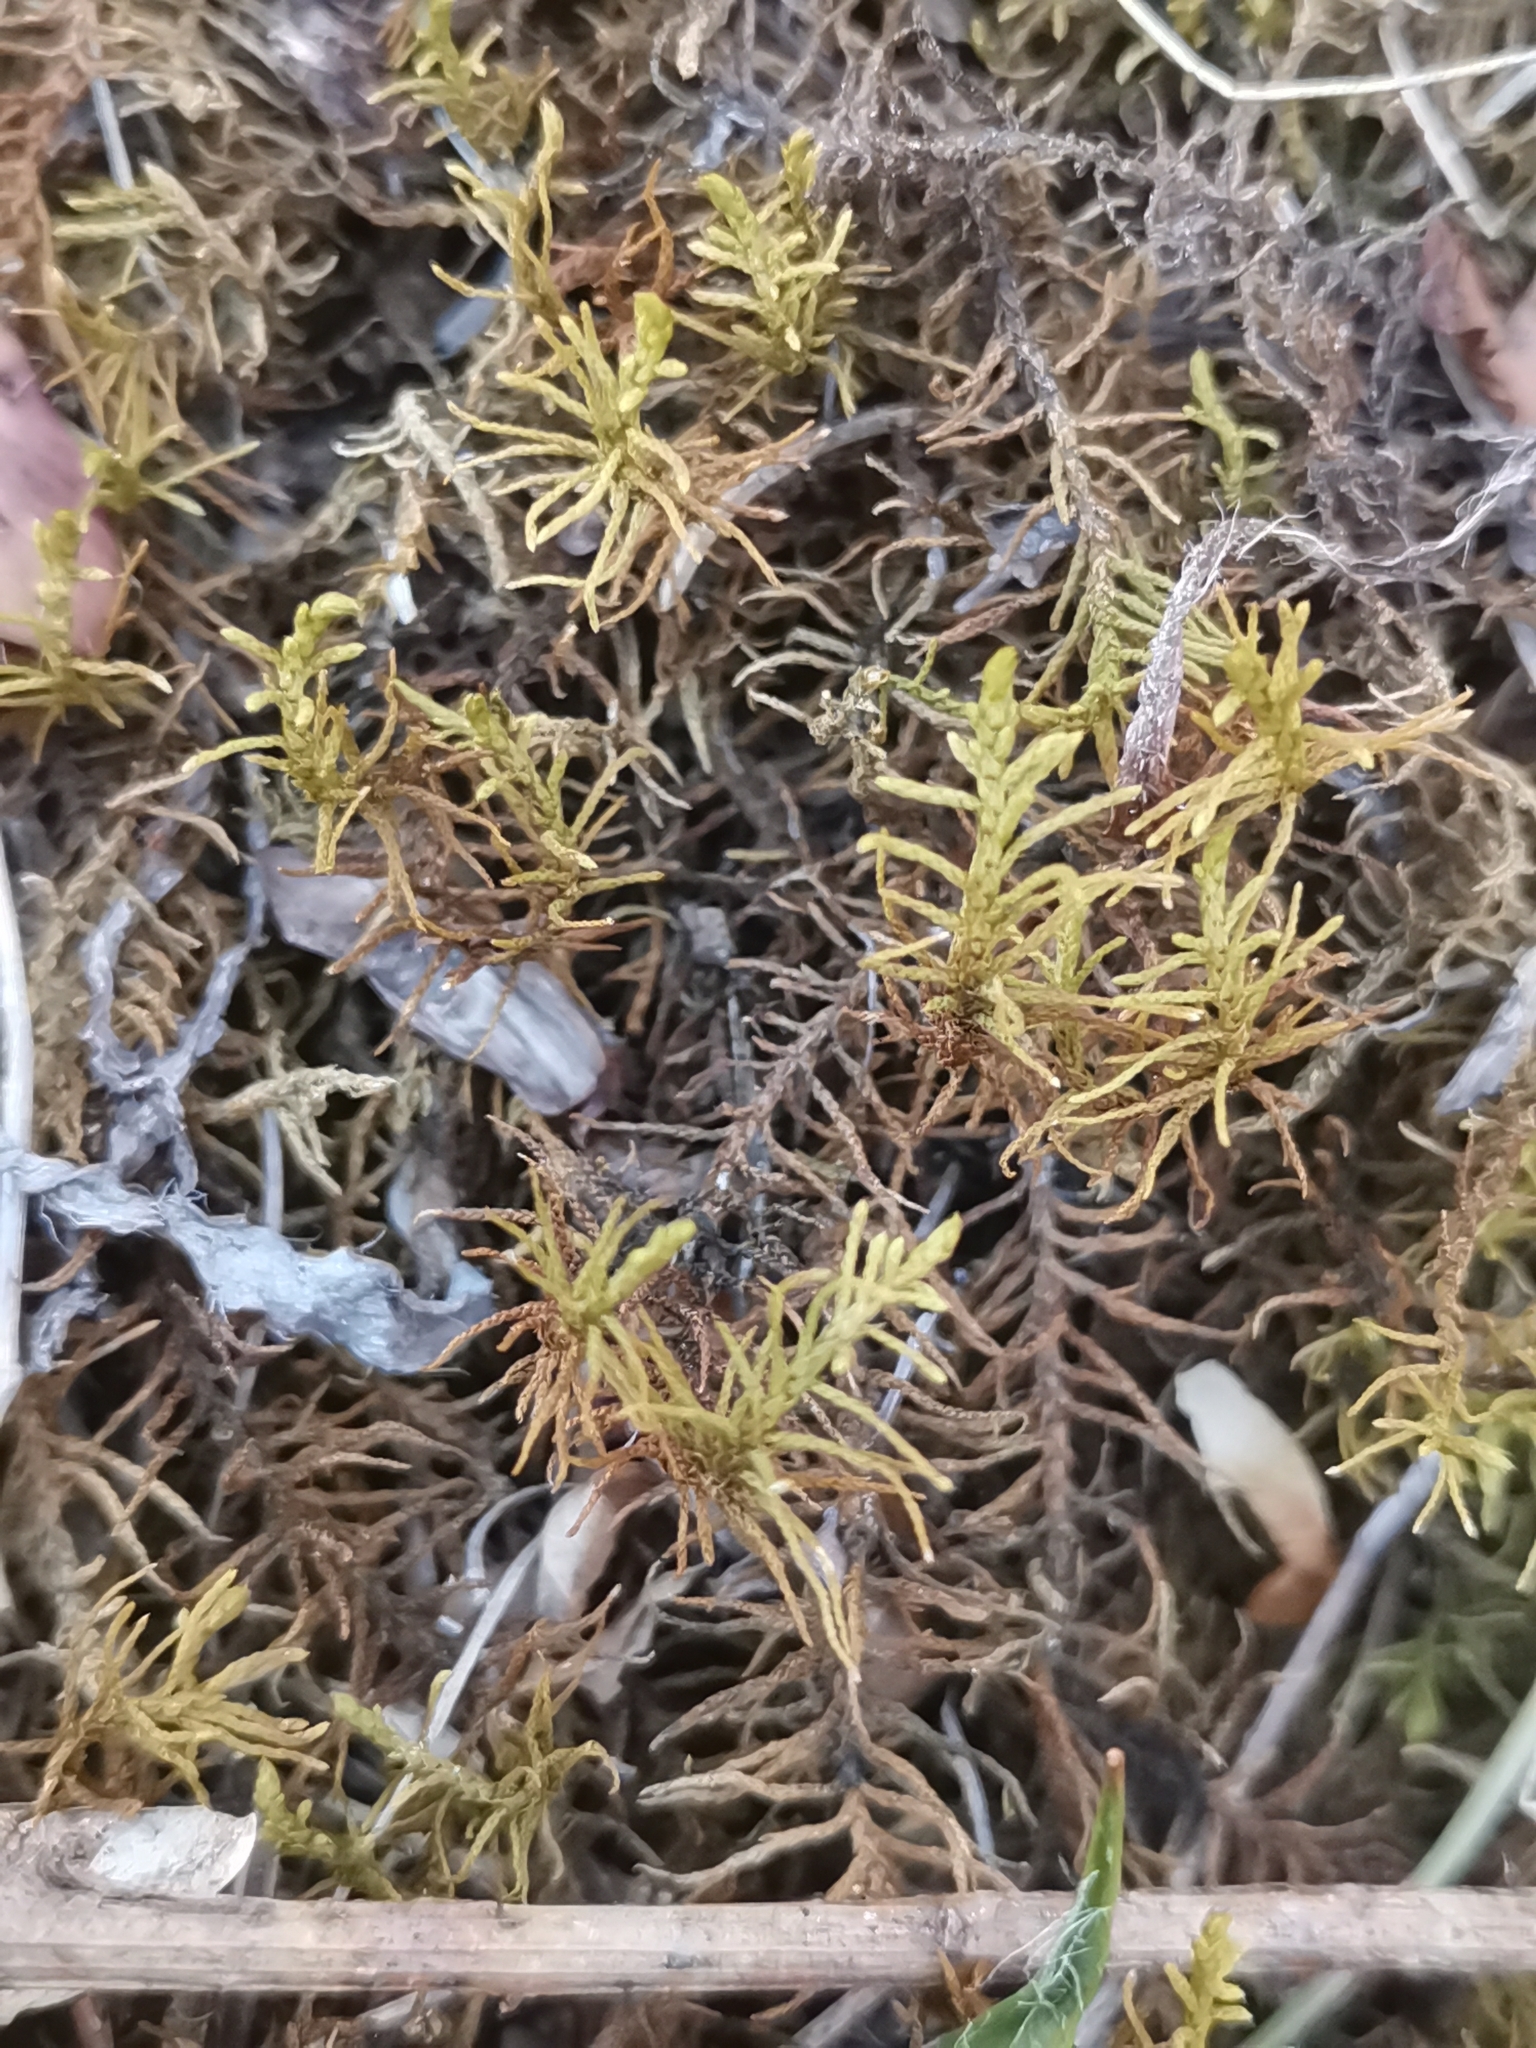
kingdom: Plantae
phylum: Bryophyta
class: Bryopsida
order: Hypnales
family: Thuidiaceae
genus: Abietinella
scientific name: Abietinella abietina
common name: Wiry fern moss
